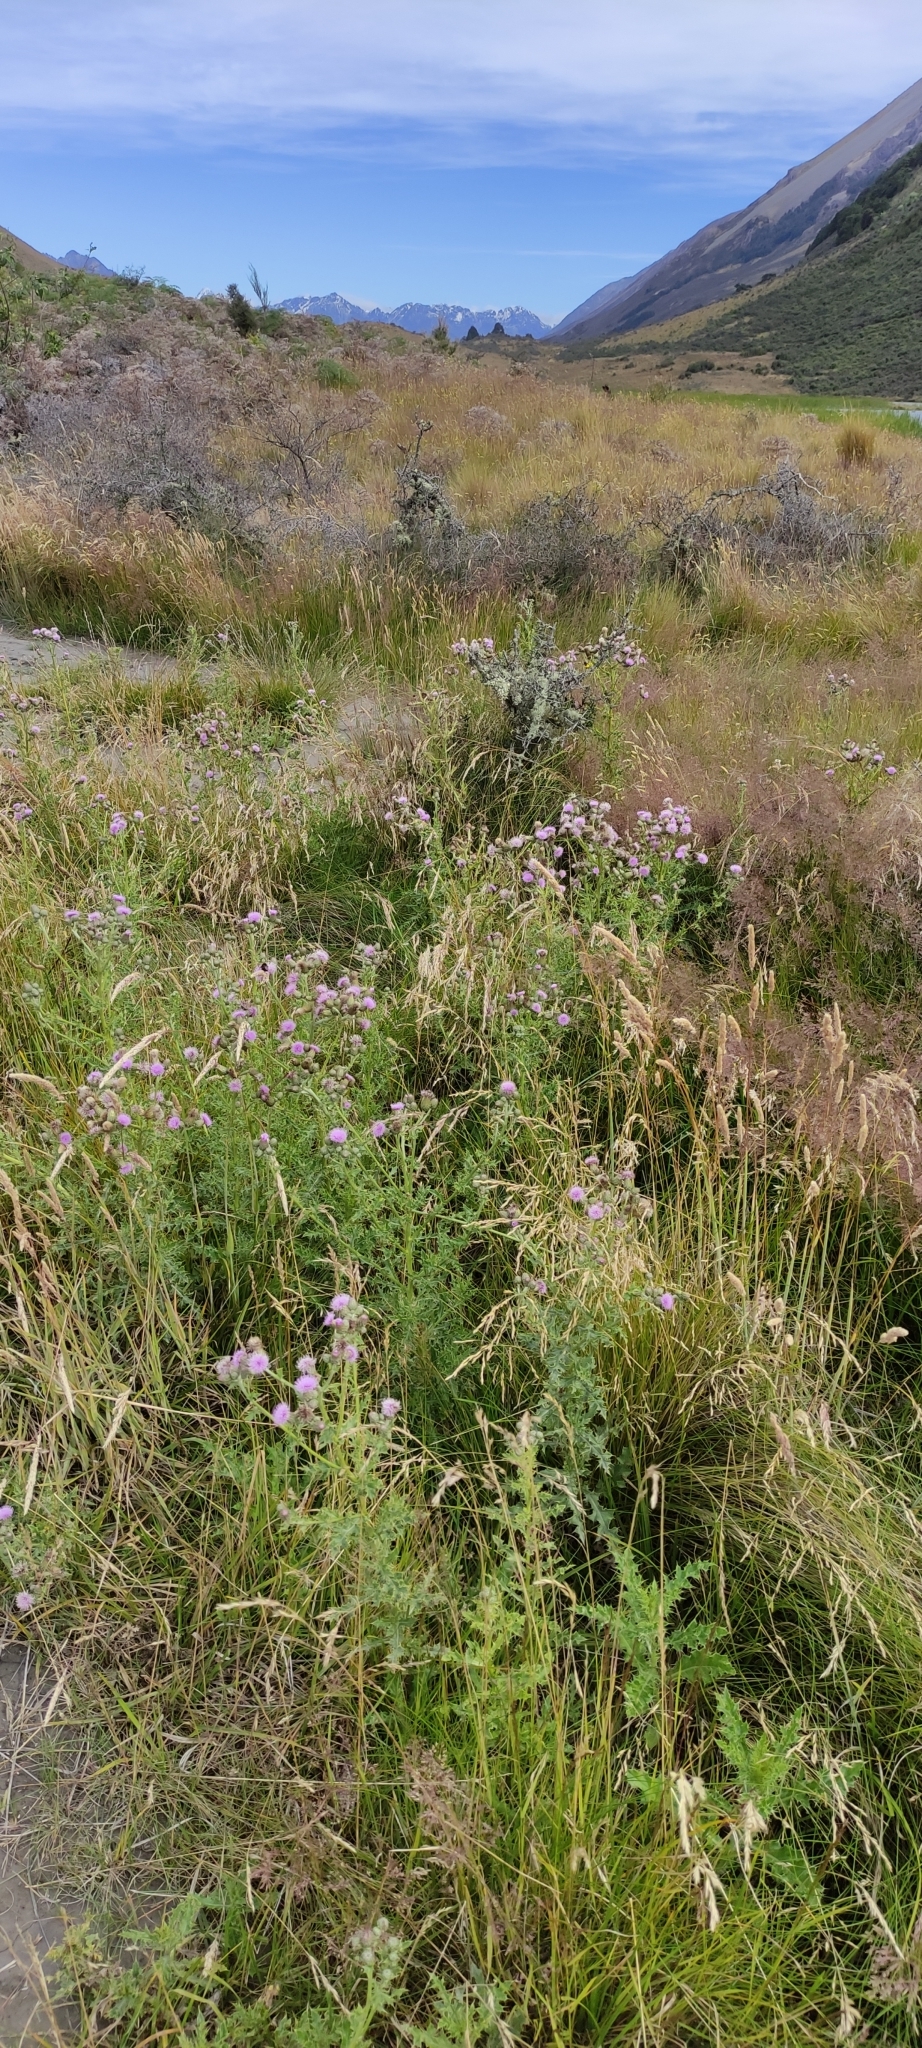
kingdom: Plantae
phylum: Tracheophyta
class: Magnoliopsida
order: Asterales
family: Asteraceae
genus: Cirsium
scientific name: Cirsium arvense
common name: Creeping thistle
